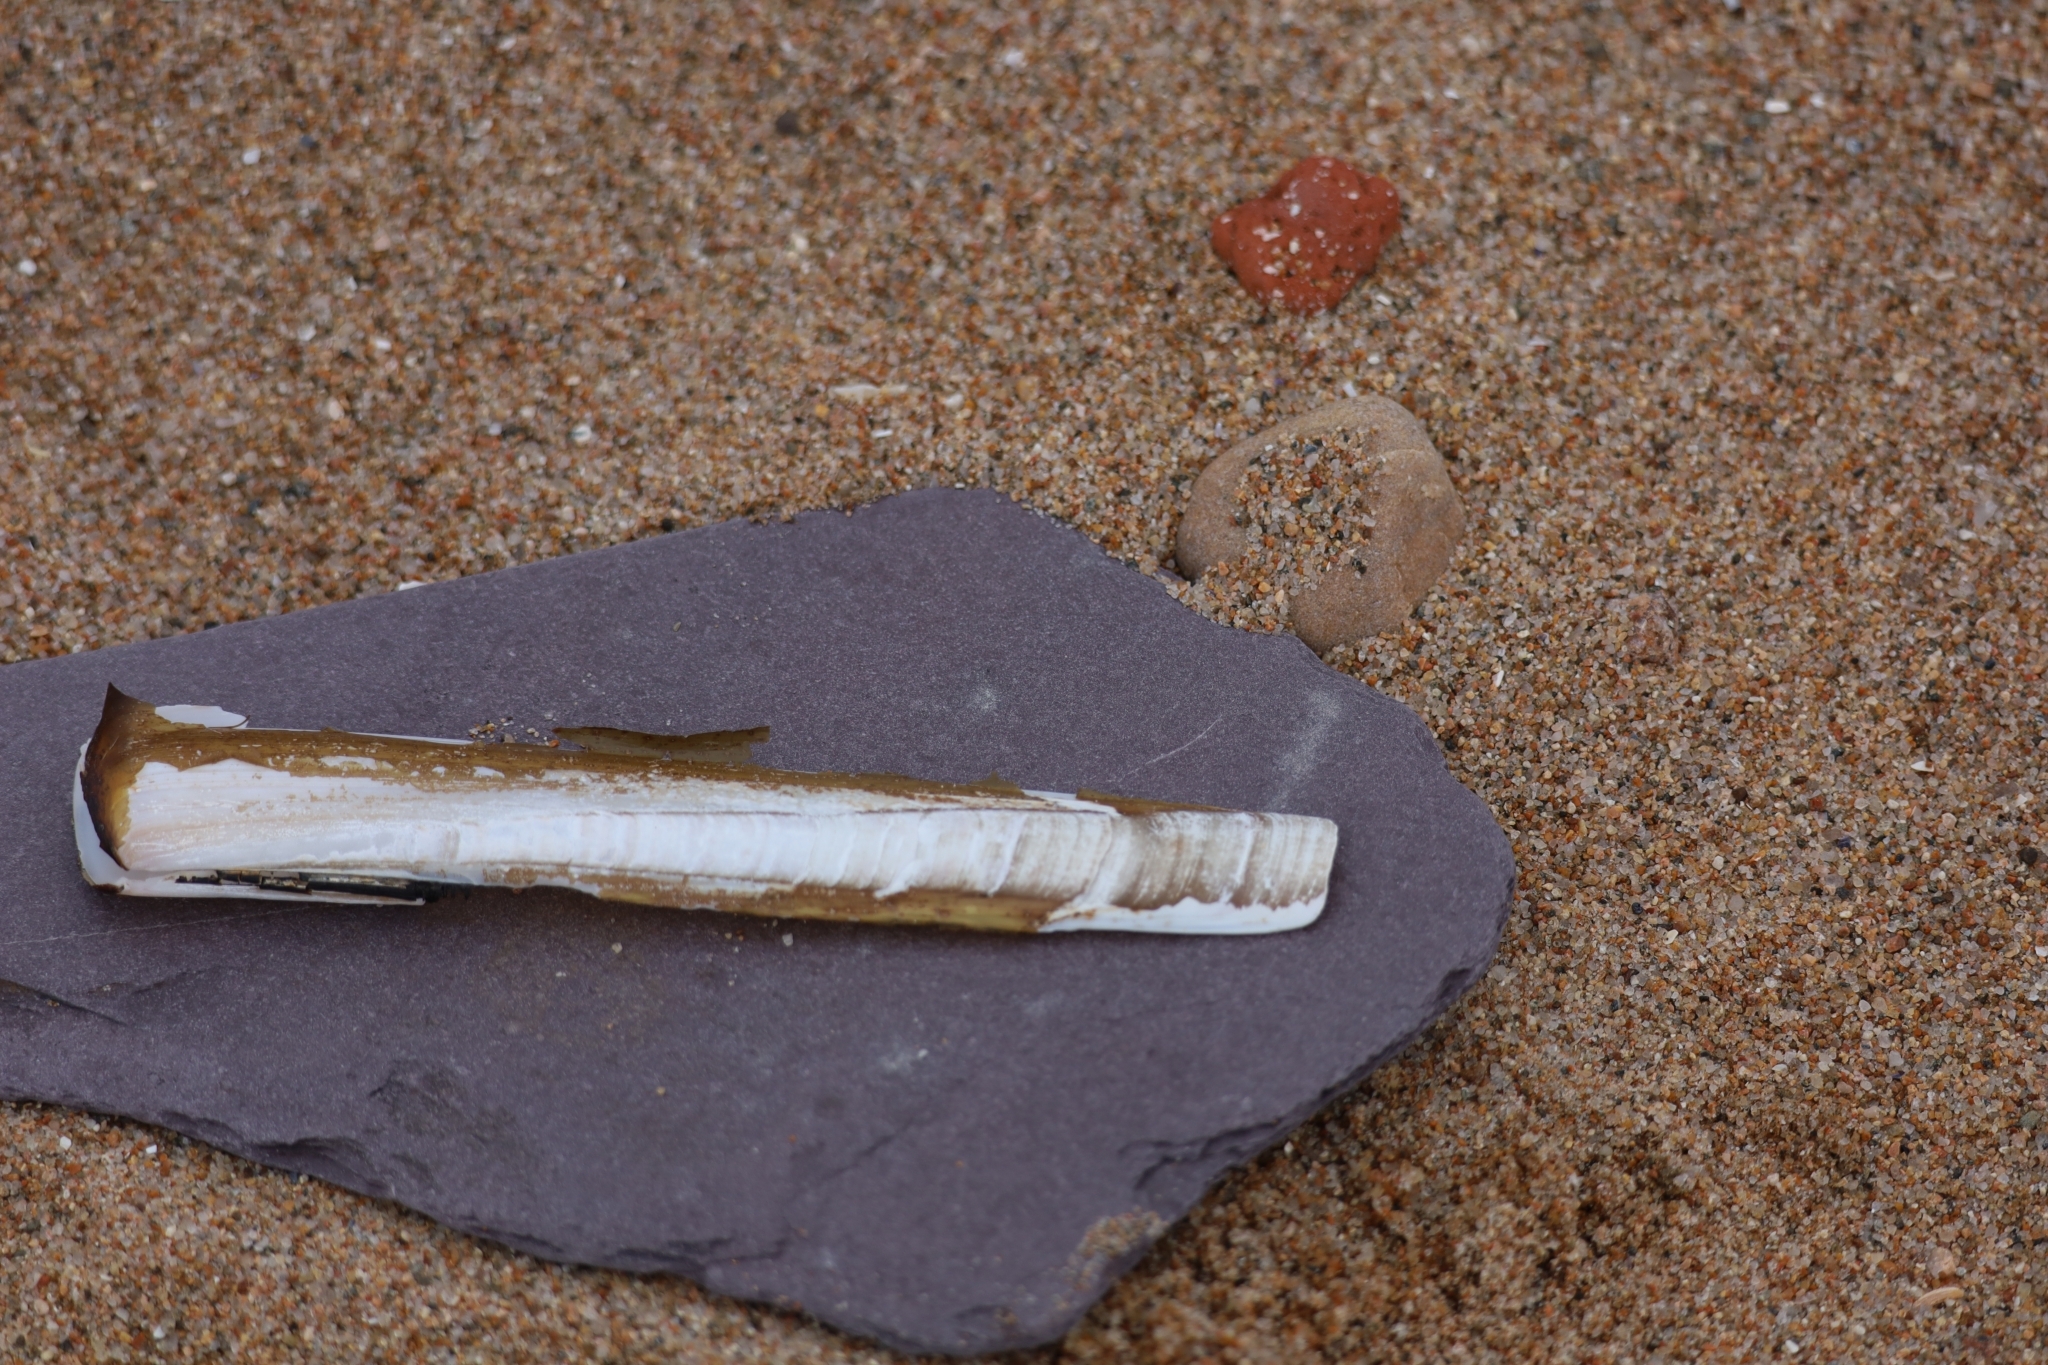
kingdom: Animalia
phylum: Mollusca
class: Bivalvia
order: Adapedonta
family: Pharidae
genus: Ensis
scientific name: Ensis siliqua
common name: Pod razor shell
